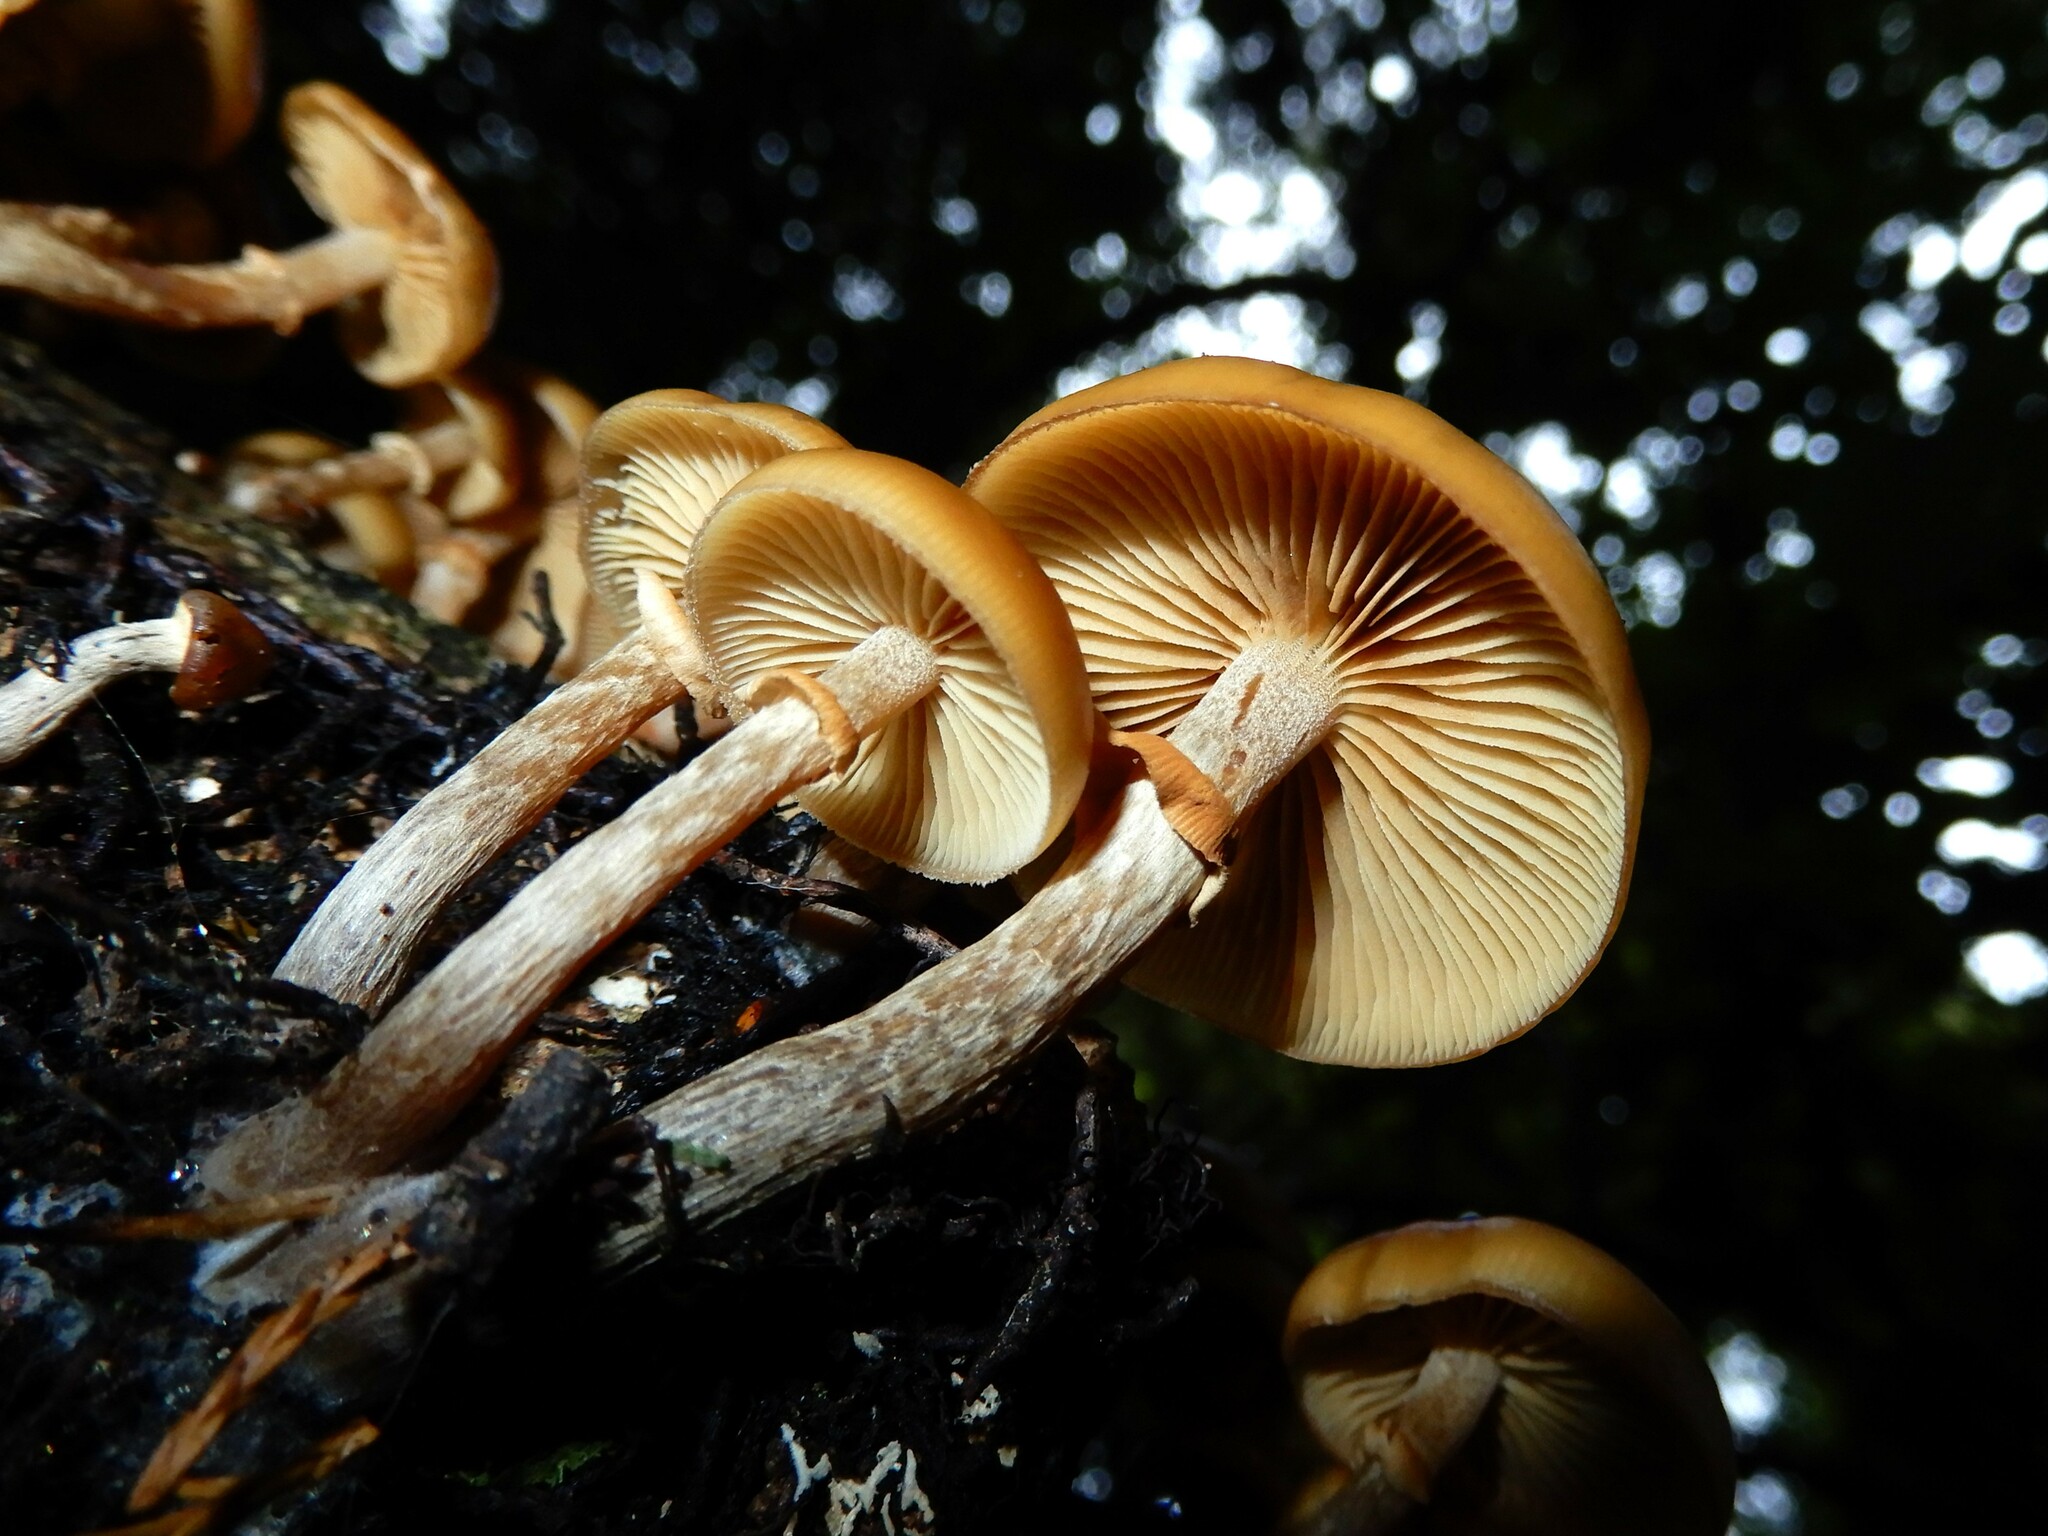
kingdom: Fungi
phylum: Basidiomycota
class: Agaricomycetes
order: Agaricales
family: Hymenogastraceae
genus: Galerina
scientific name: Galerina patagonica
